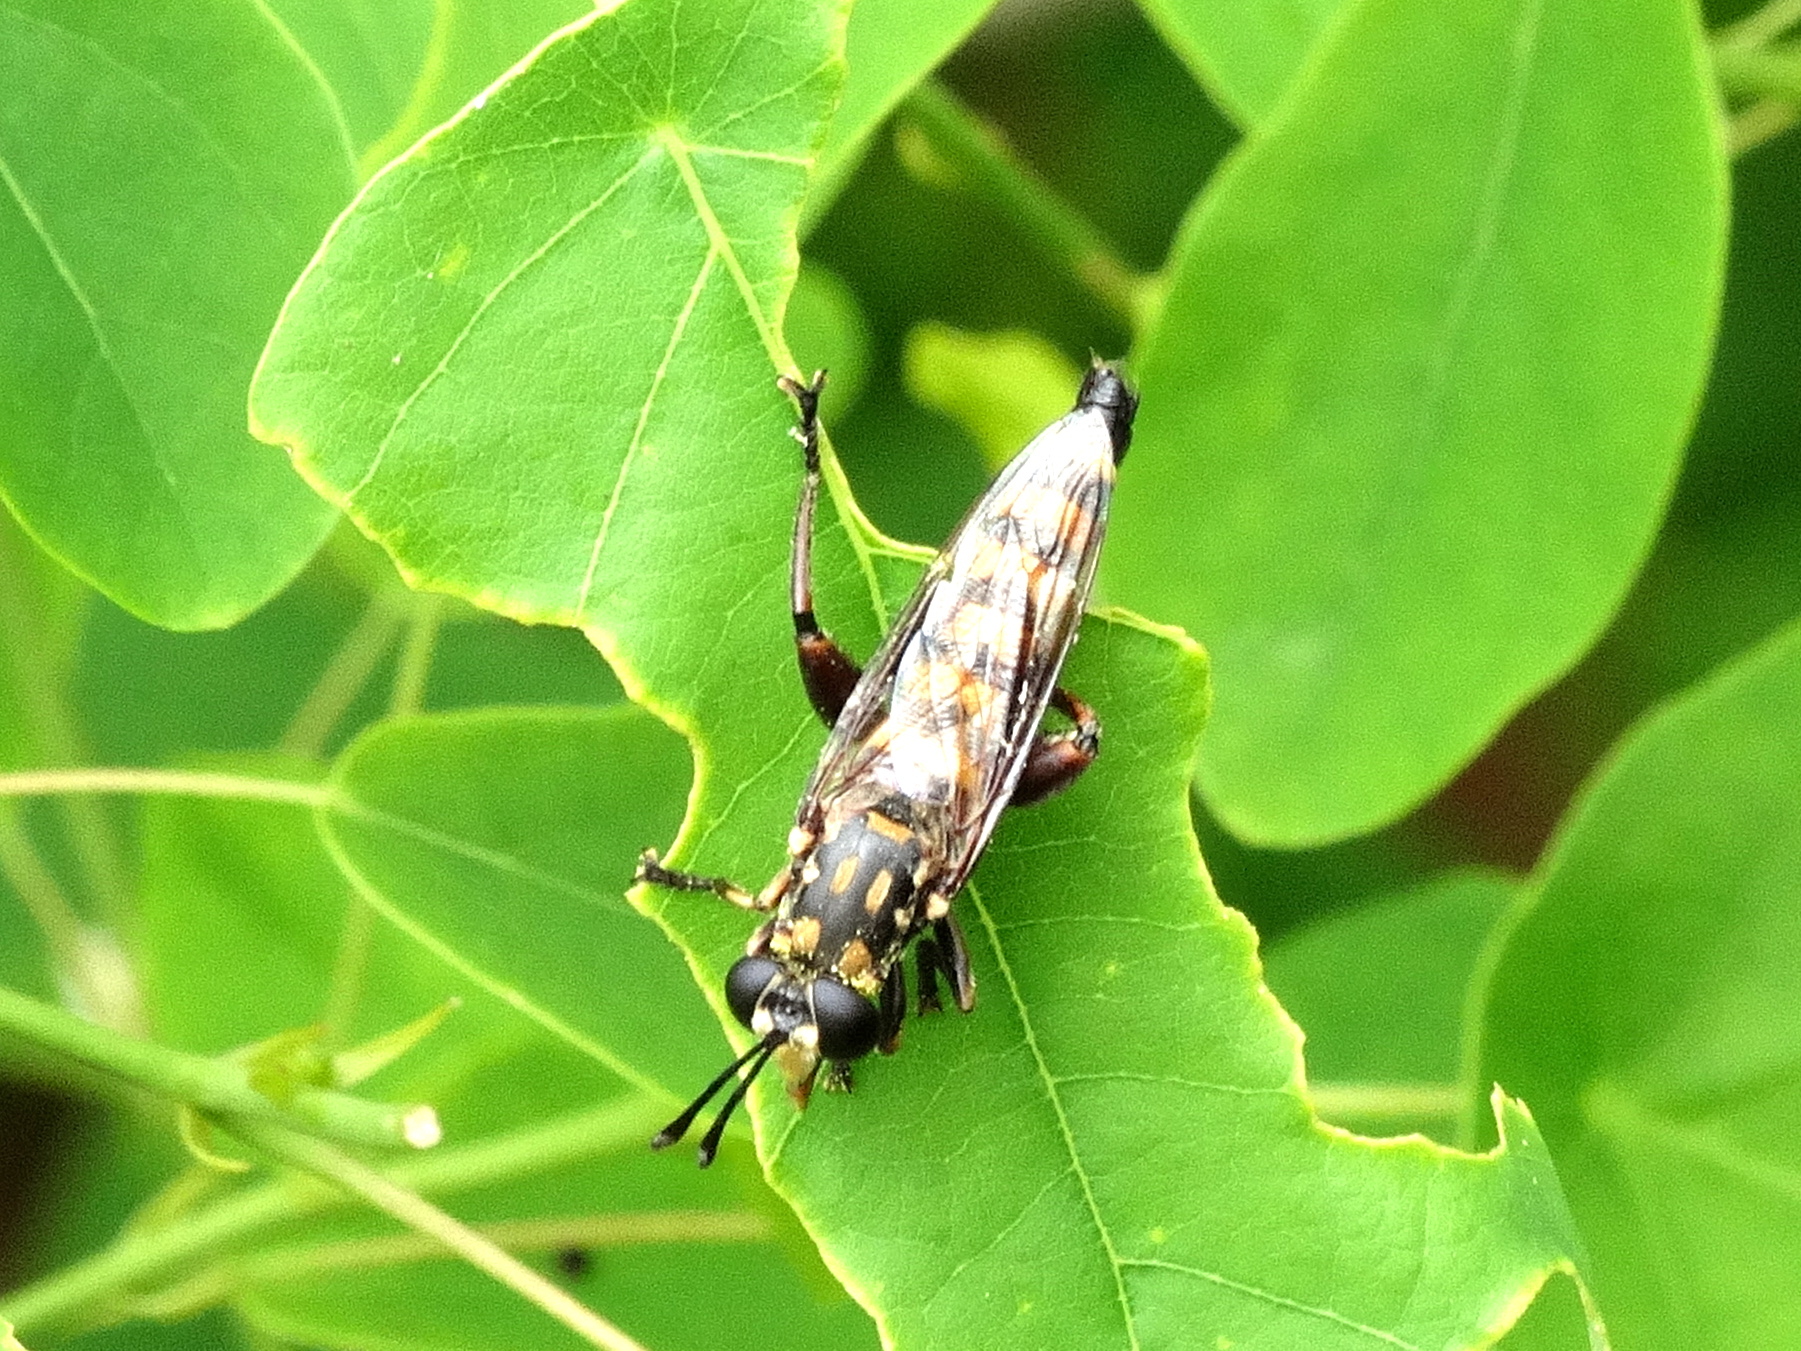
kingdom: Animalia
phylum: Arthropoda
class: Insecta
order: Diptera
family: Mydidae
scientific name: Mydidae
